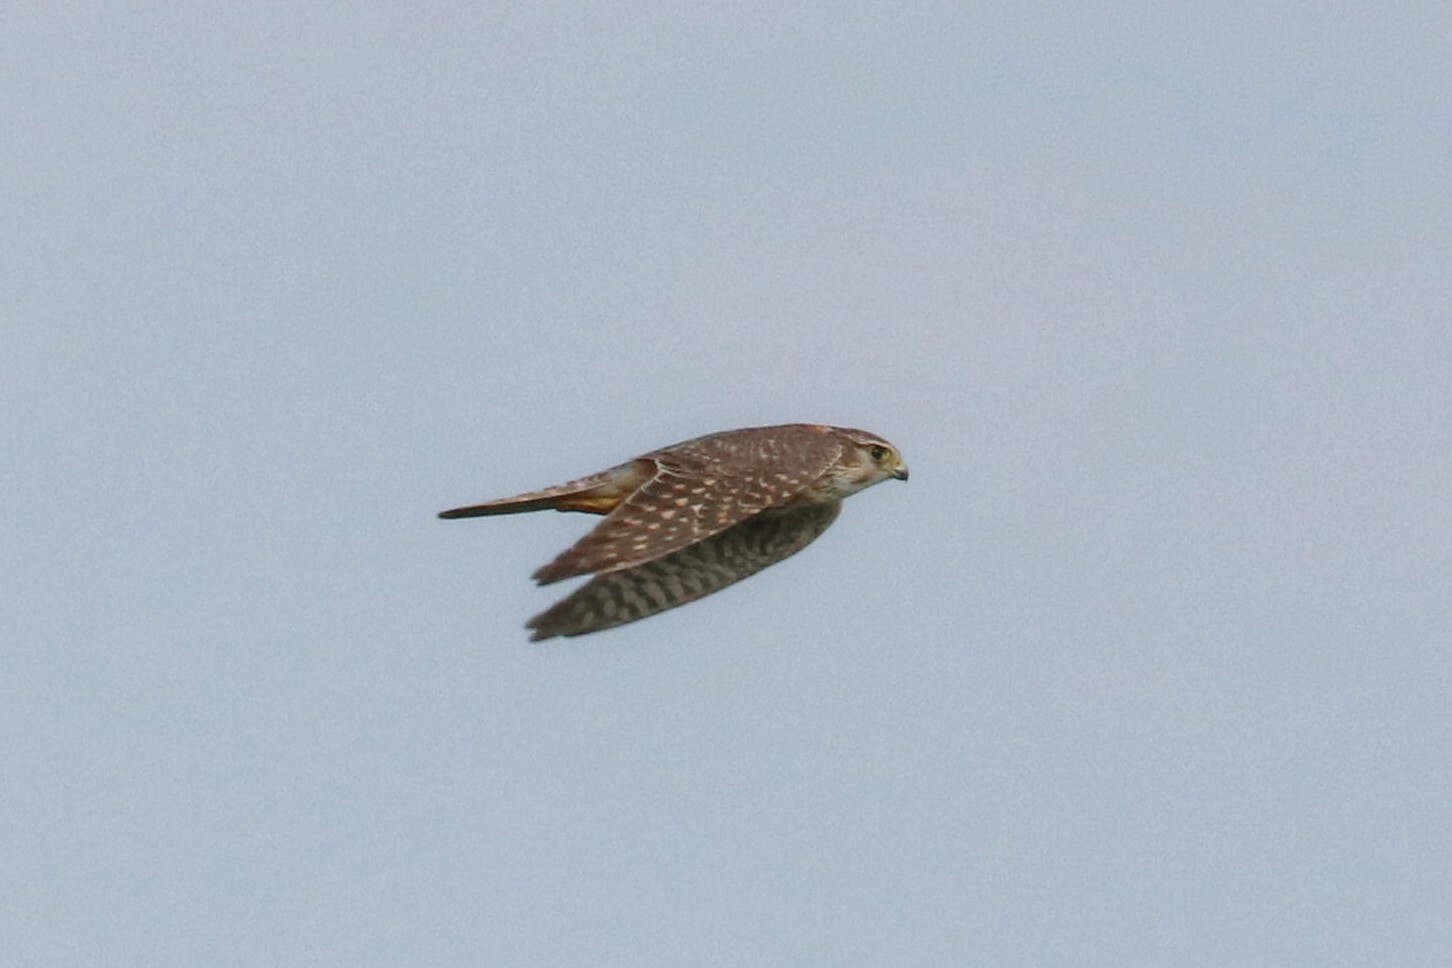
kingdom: Animalia
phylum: Chordata
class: Aves
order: Falconiformes
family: Falconidae
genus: Falco
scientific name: Falco columbarius
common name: Merlin
